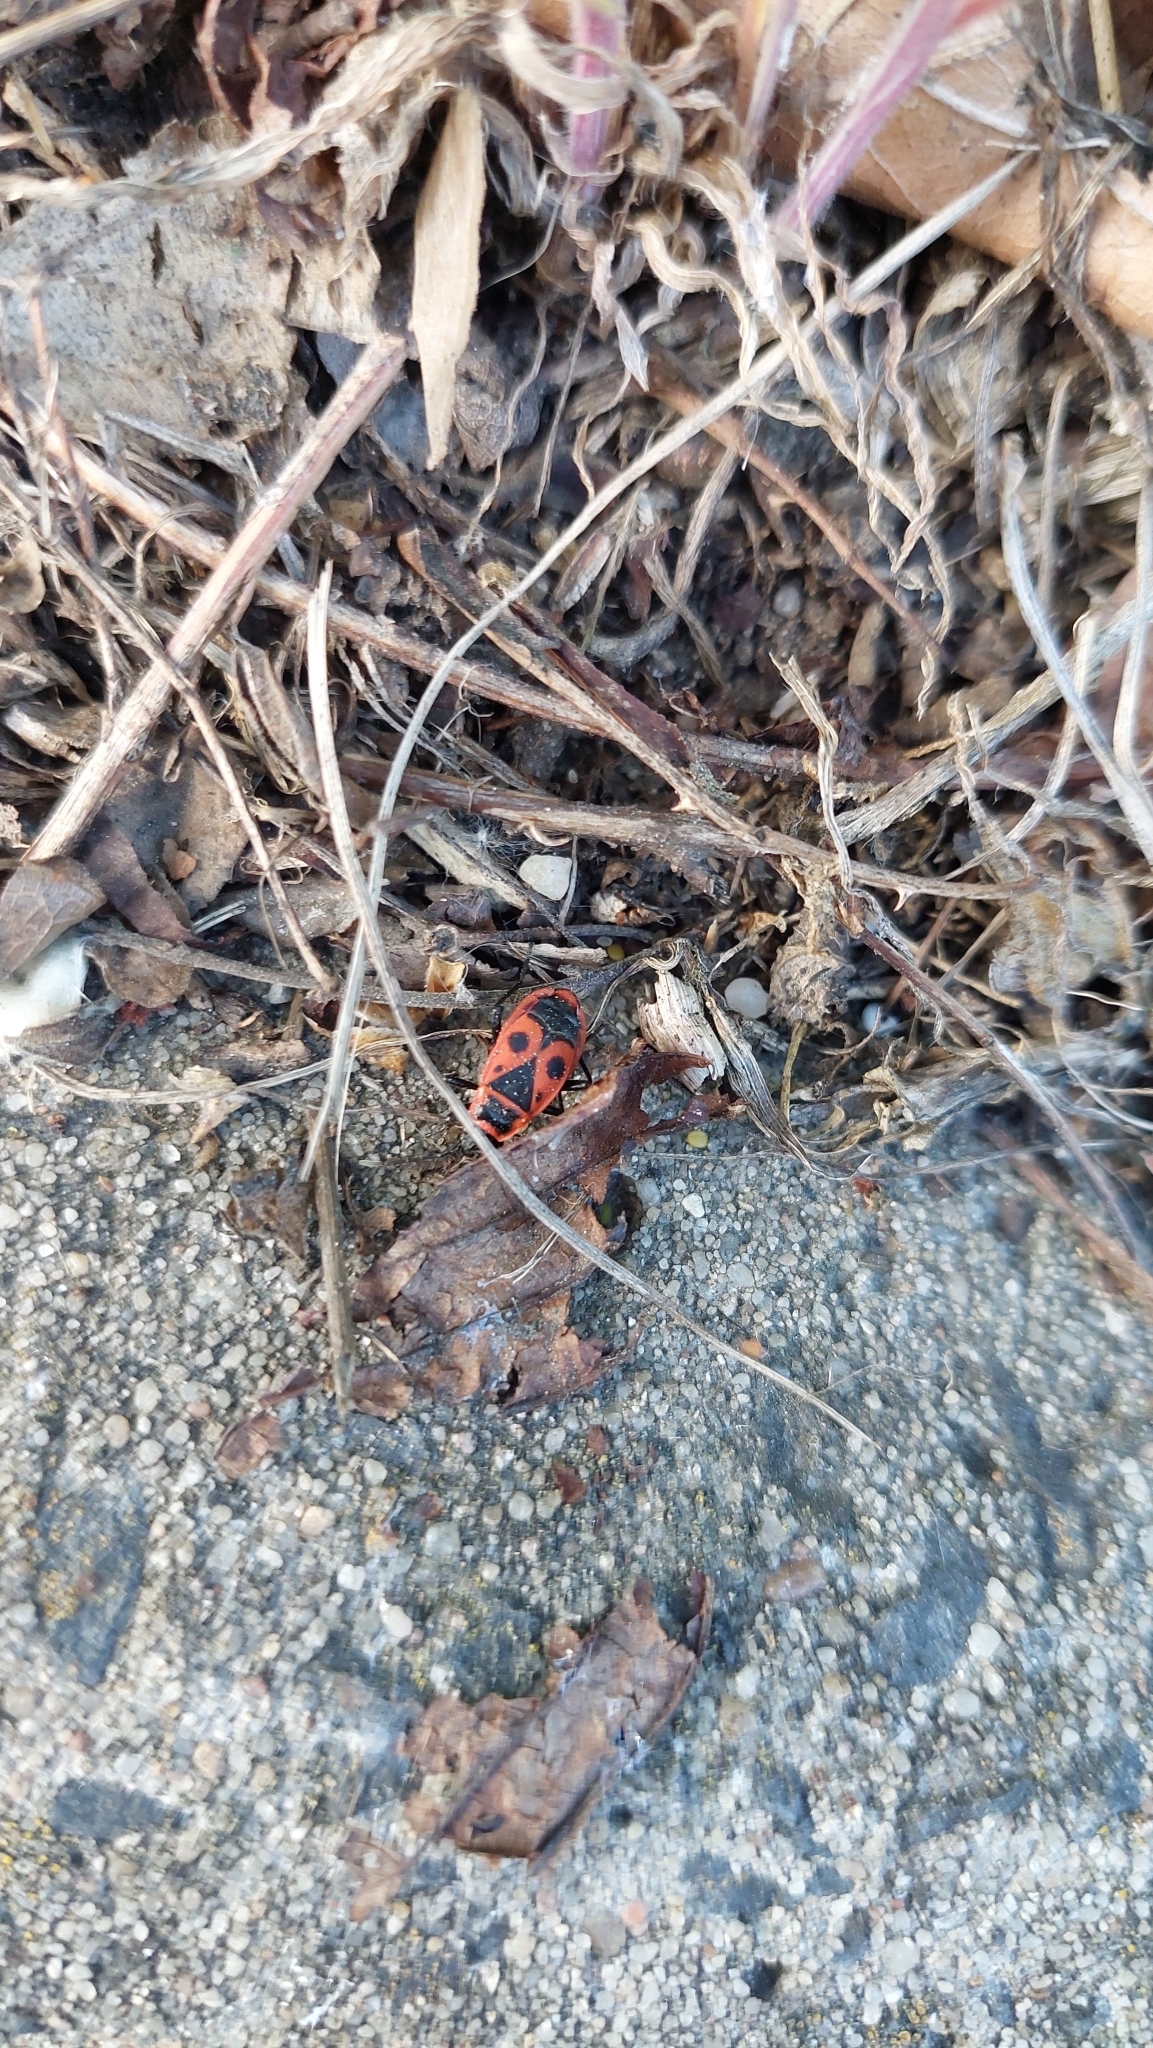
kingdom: Animalia
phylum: Arthropoda
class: Insecta
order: Hemiptera
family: Pyrrhocoridae
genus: Pyrrhocoris
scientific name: Pyrrhocoris apterus
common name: Firebug
